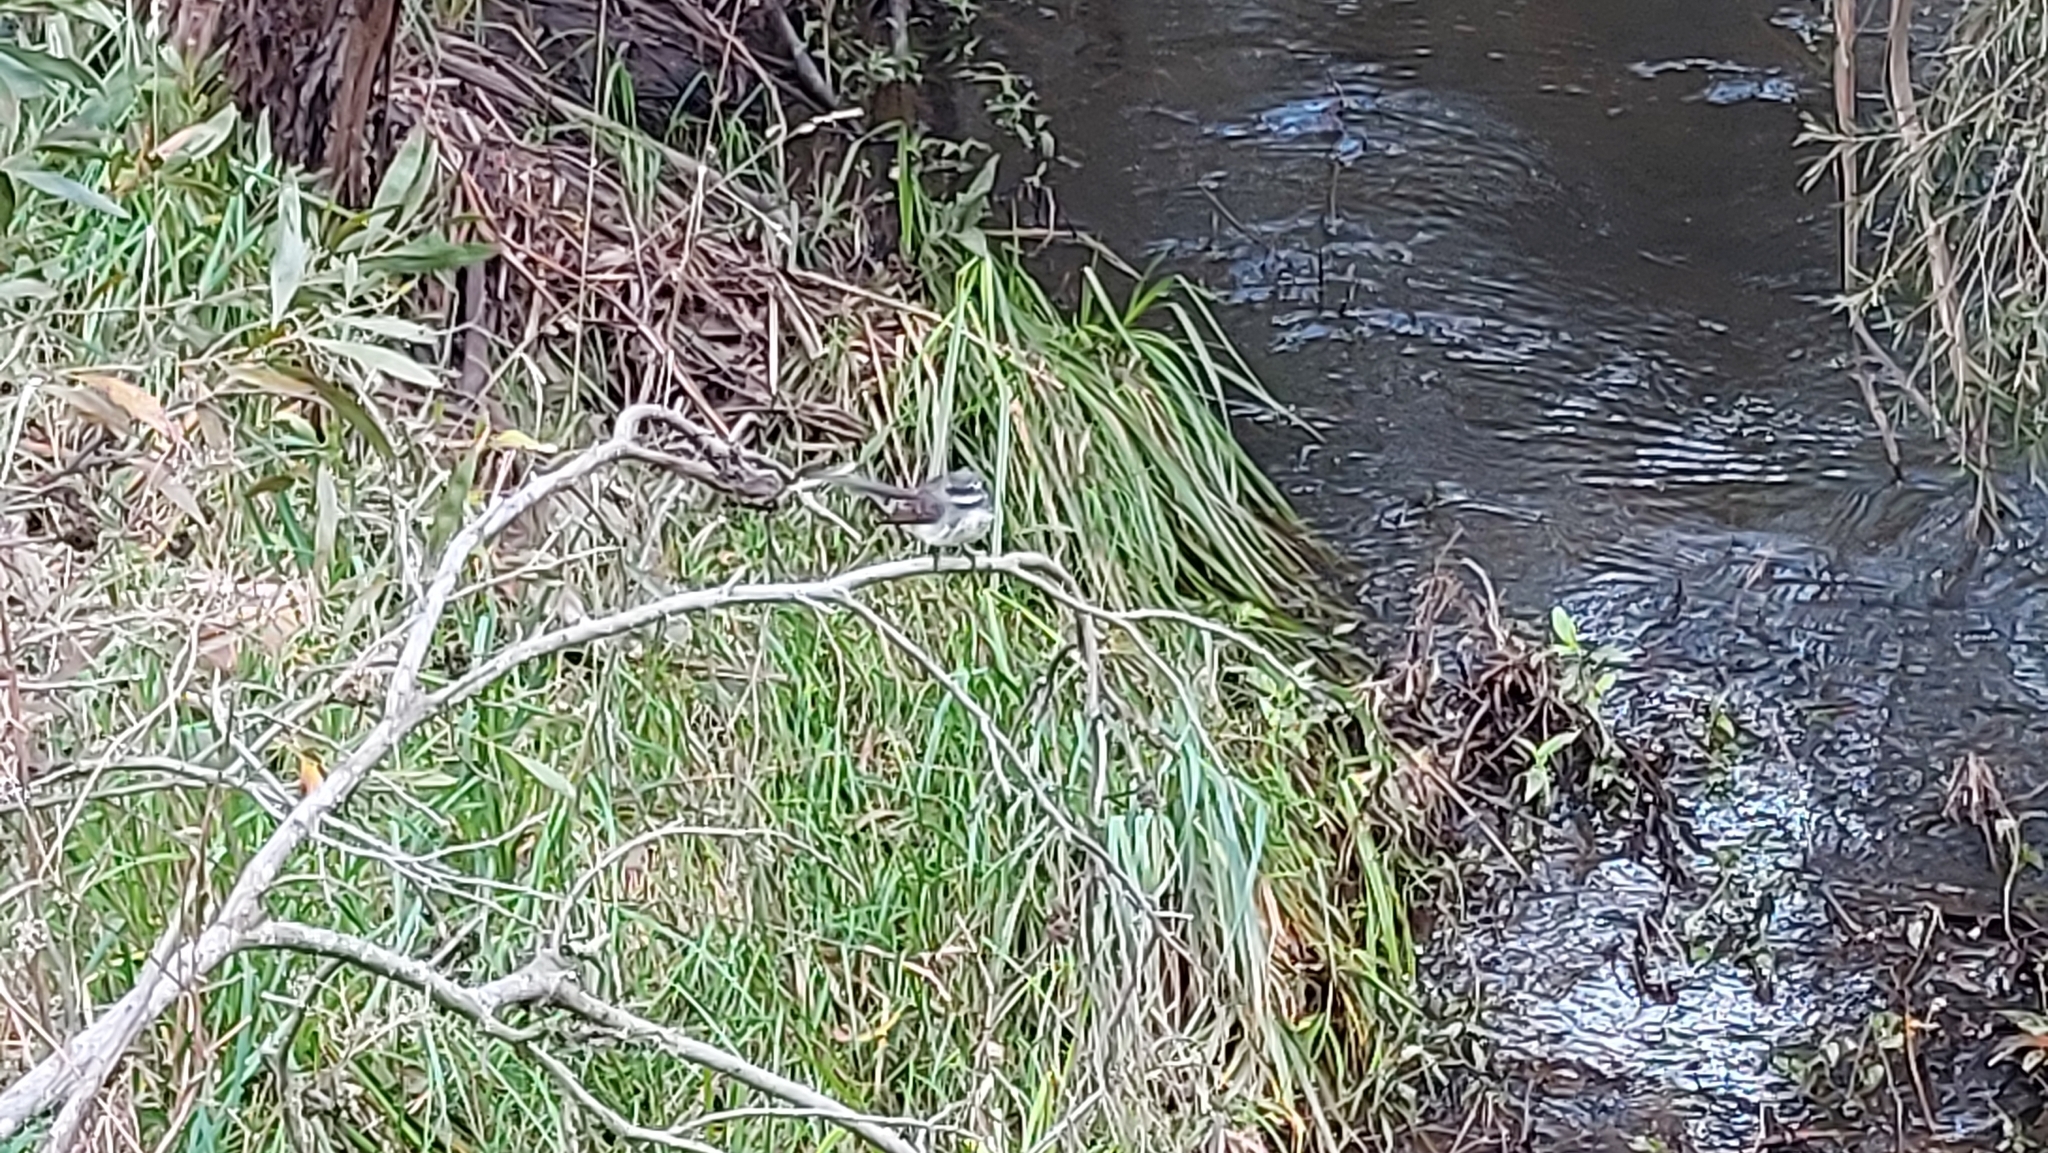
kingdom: Animalia
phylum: Chordata
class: Aves
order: Passeriformes
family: Rhipiduridae
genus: Rhipidura
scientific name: Rhipidura albiscapa
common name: Grey fantail
